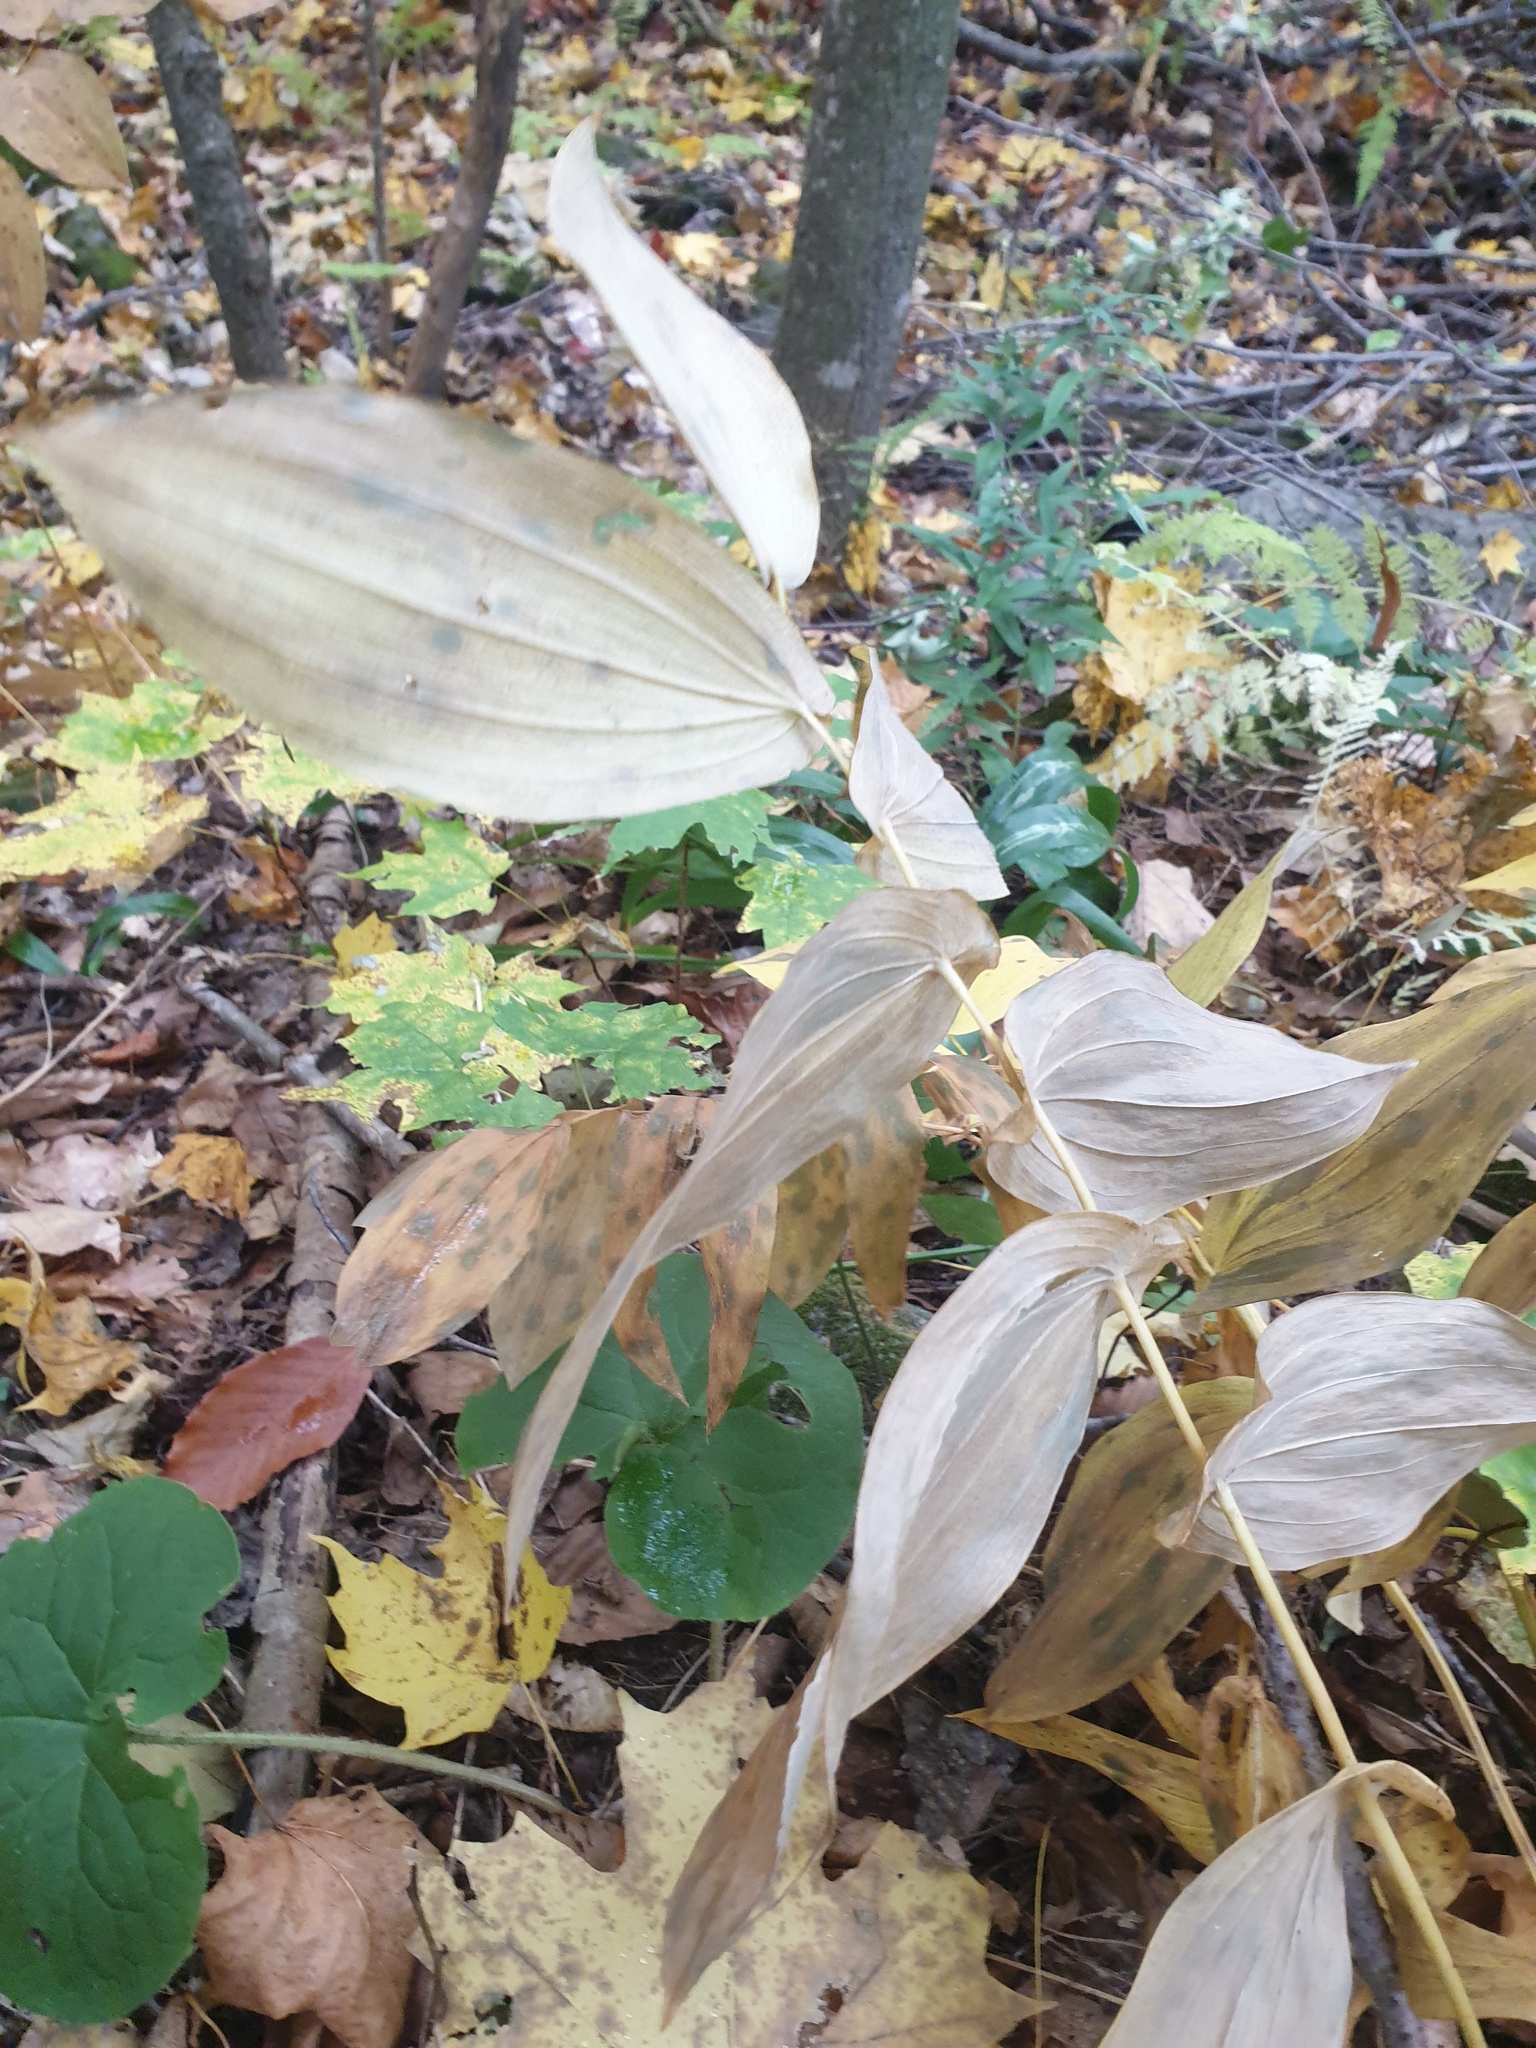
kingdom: Plantae
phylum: Tracheophyta
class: Liliopsida
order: Liliales
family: Colchicaceae
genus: Uvularia
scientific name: Uvularia grandiflora
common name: Bellwort
